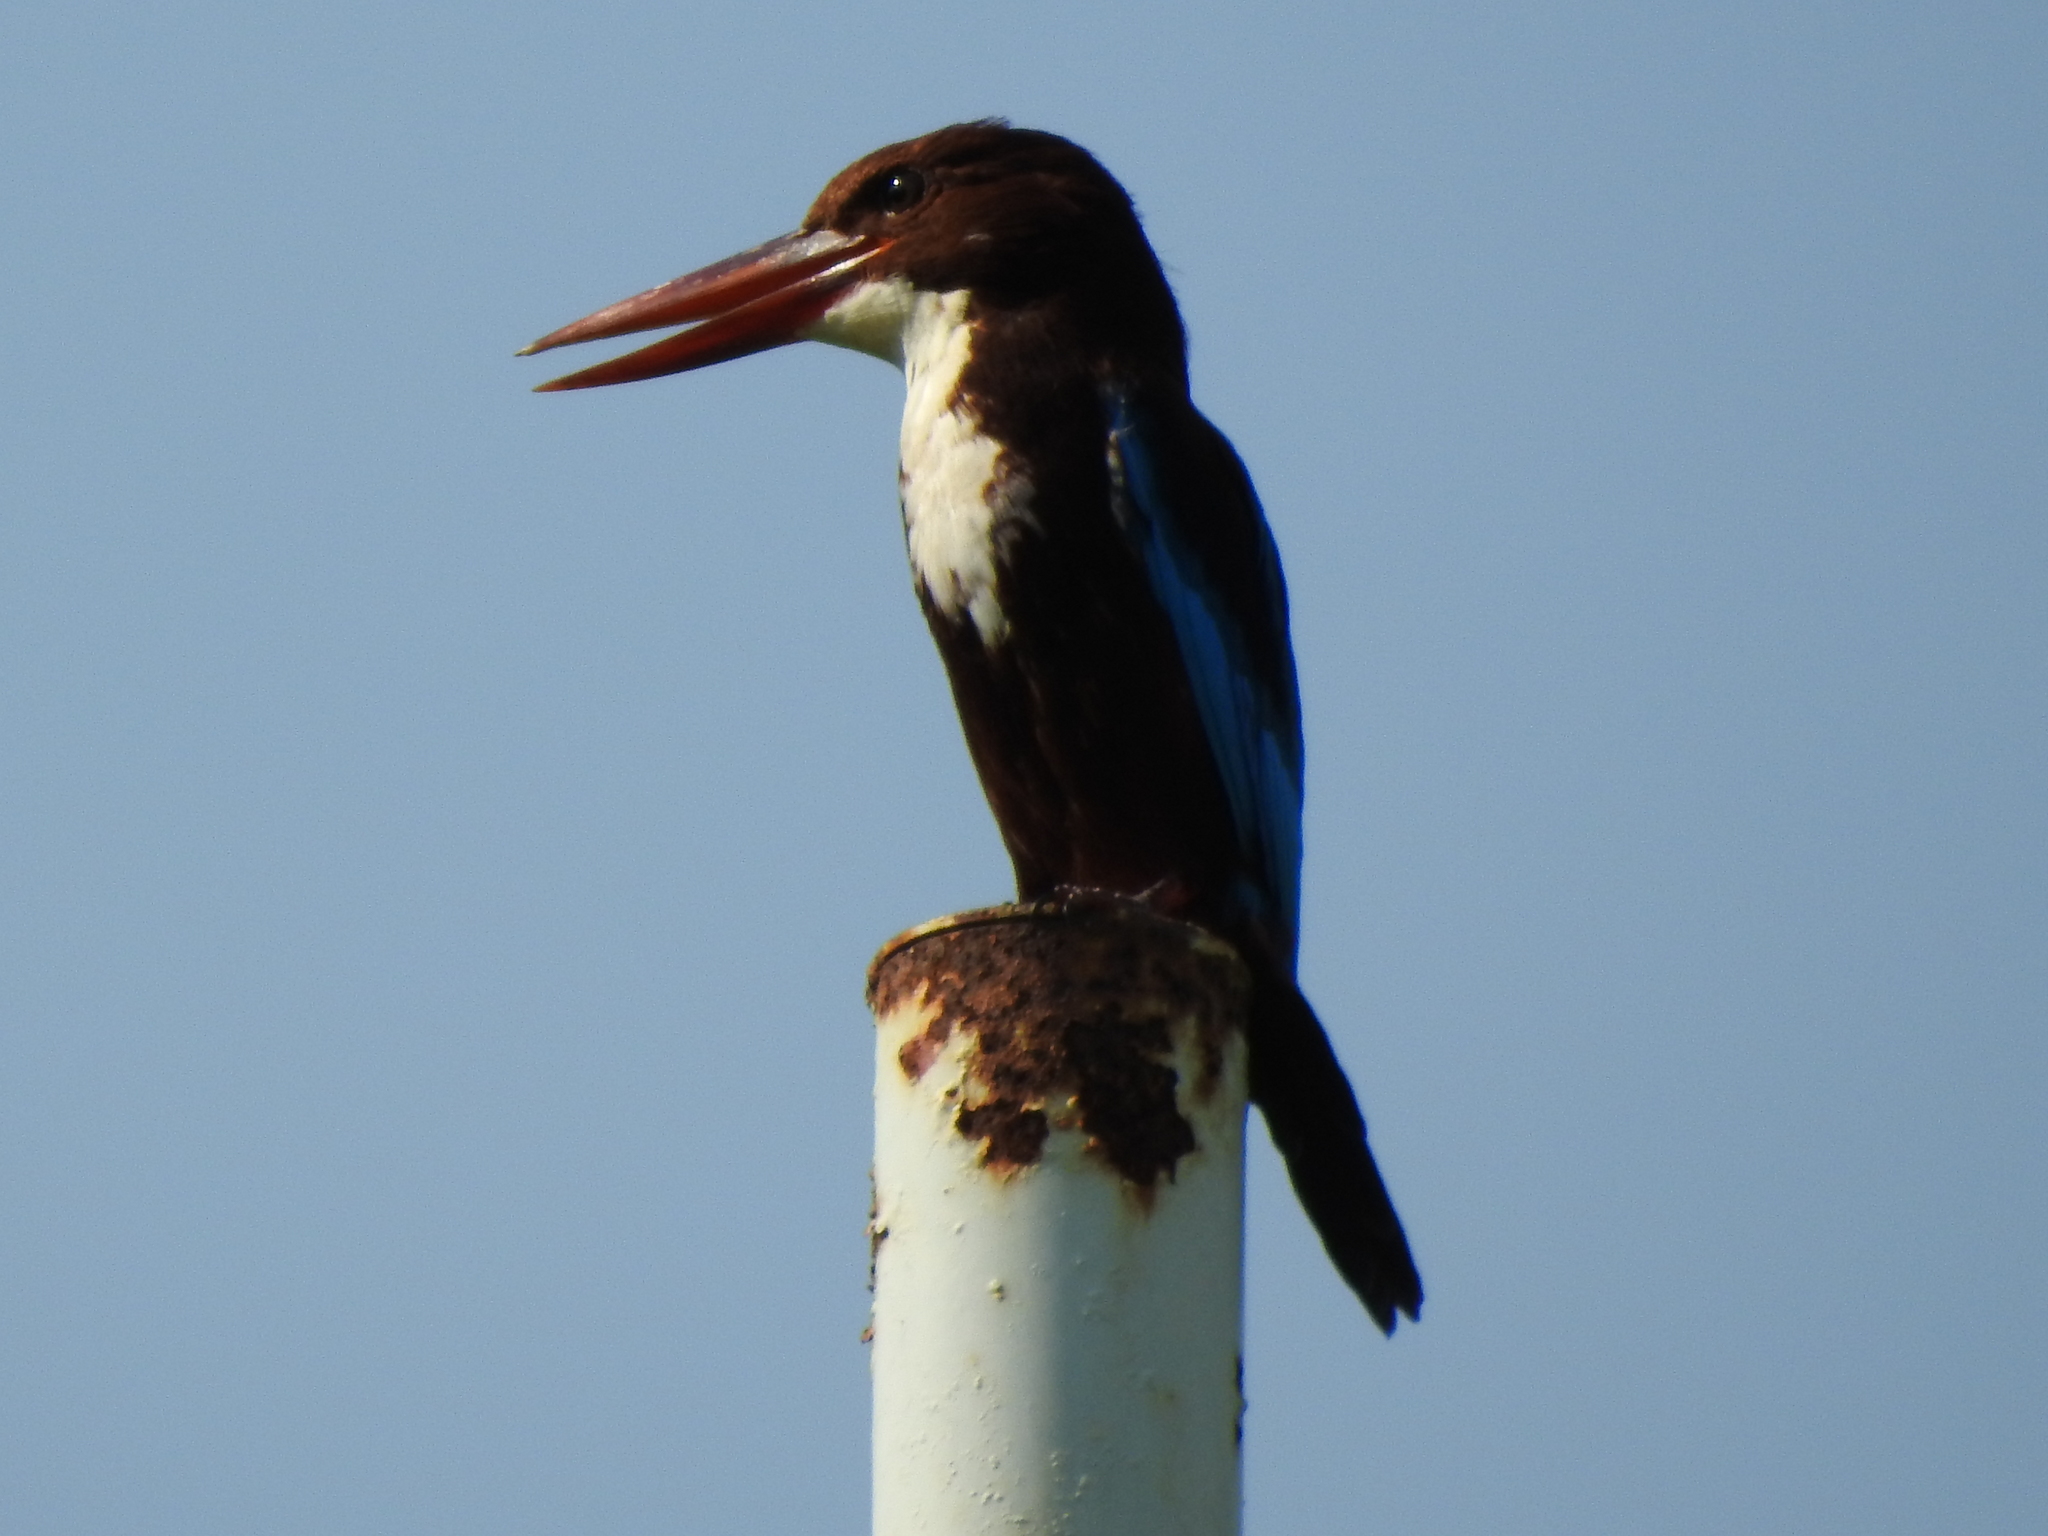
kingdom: Animalia
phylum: Chordata
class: Aves
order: Coraciiformes
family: Alcedinidae
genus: Halcyon
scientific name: Halcyon smyrnensis
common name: White-throated kingfisher
